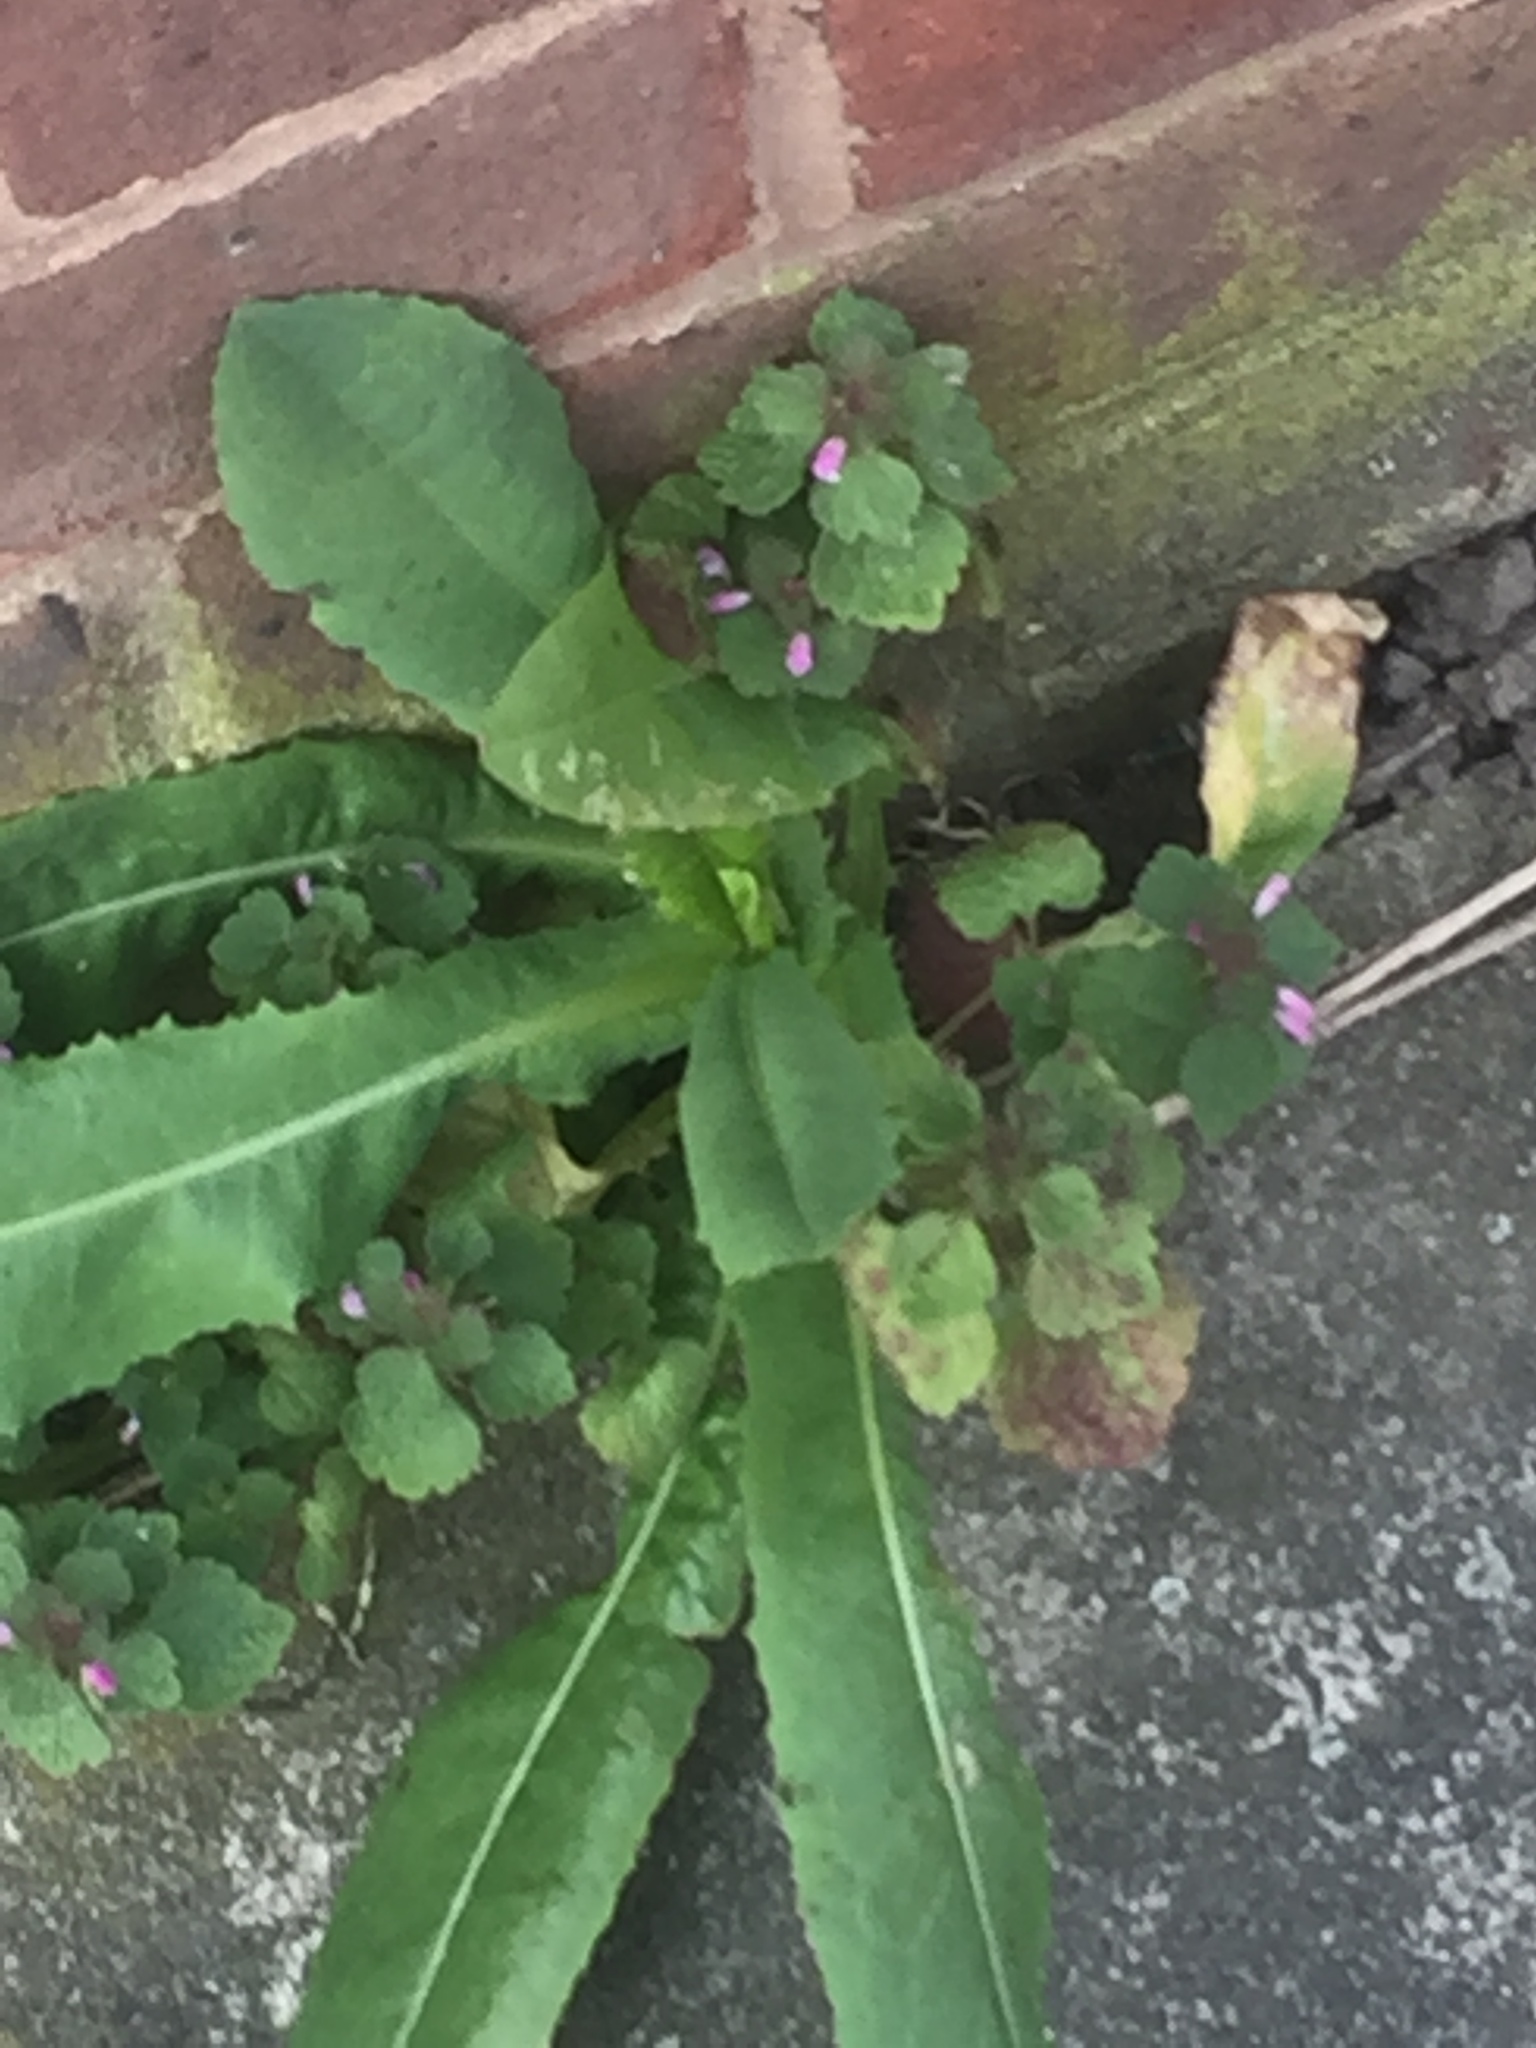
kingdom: Plantae
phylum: Tracheophyta
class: Magnoliopsida
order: Lamiales
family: Lamiaceae
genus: Lamium
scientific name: Lamium purpureum
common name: Red dead-nettle
